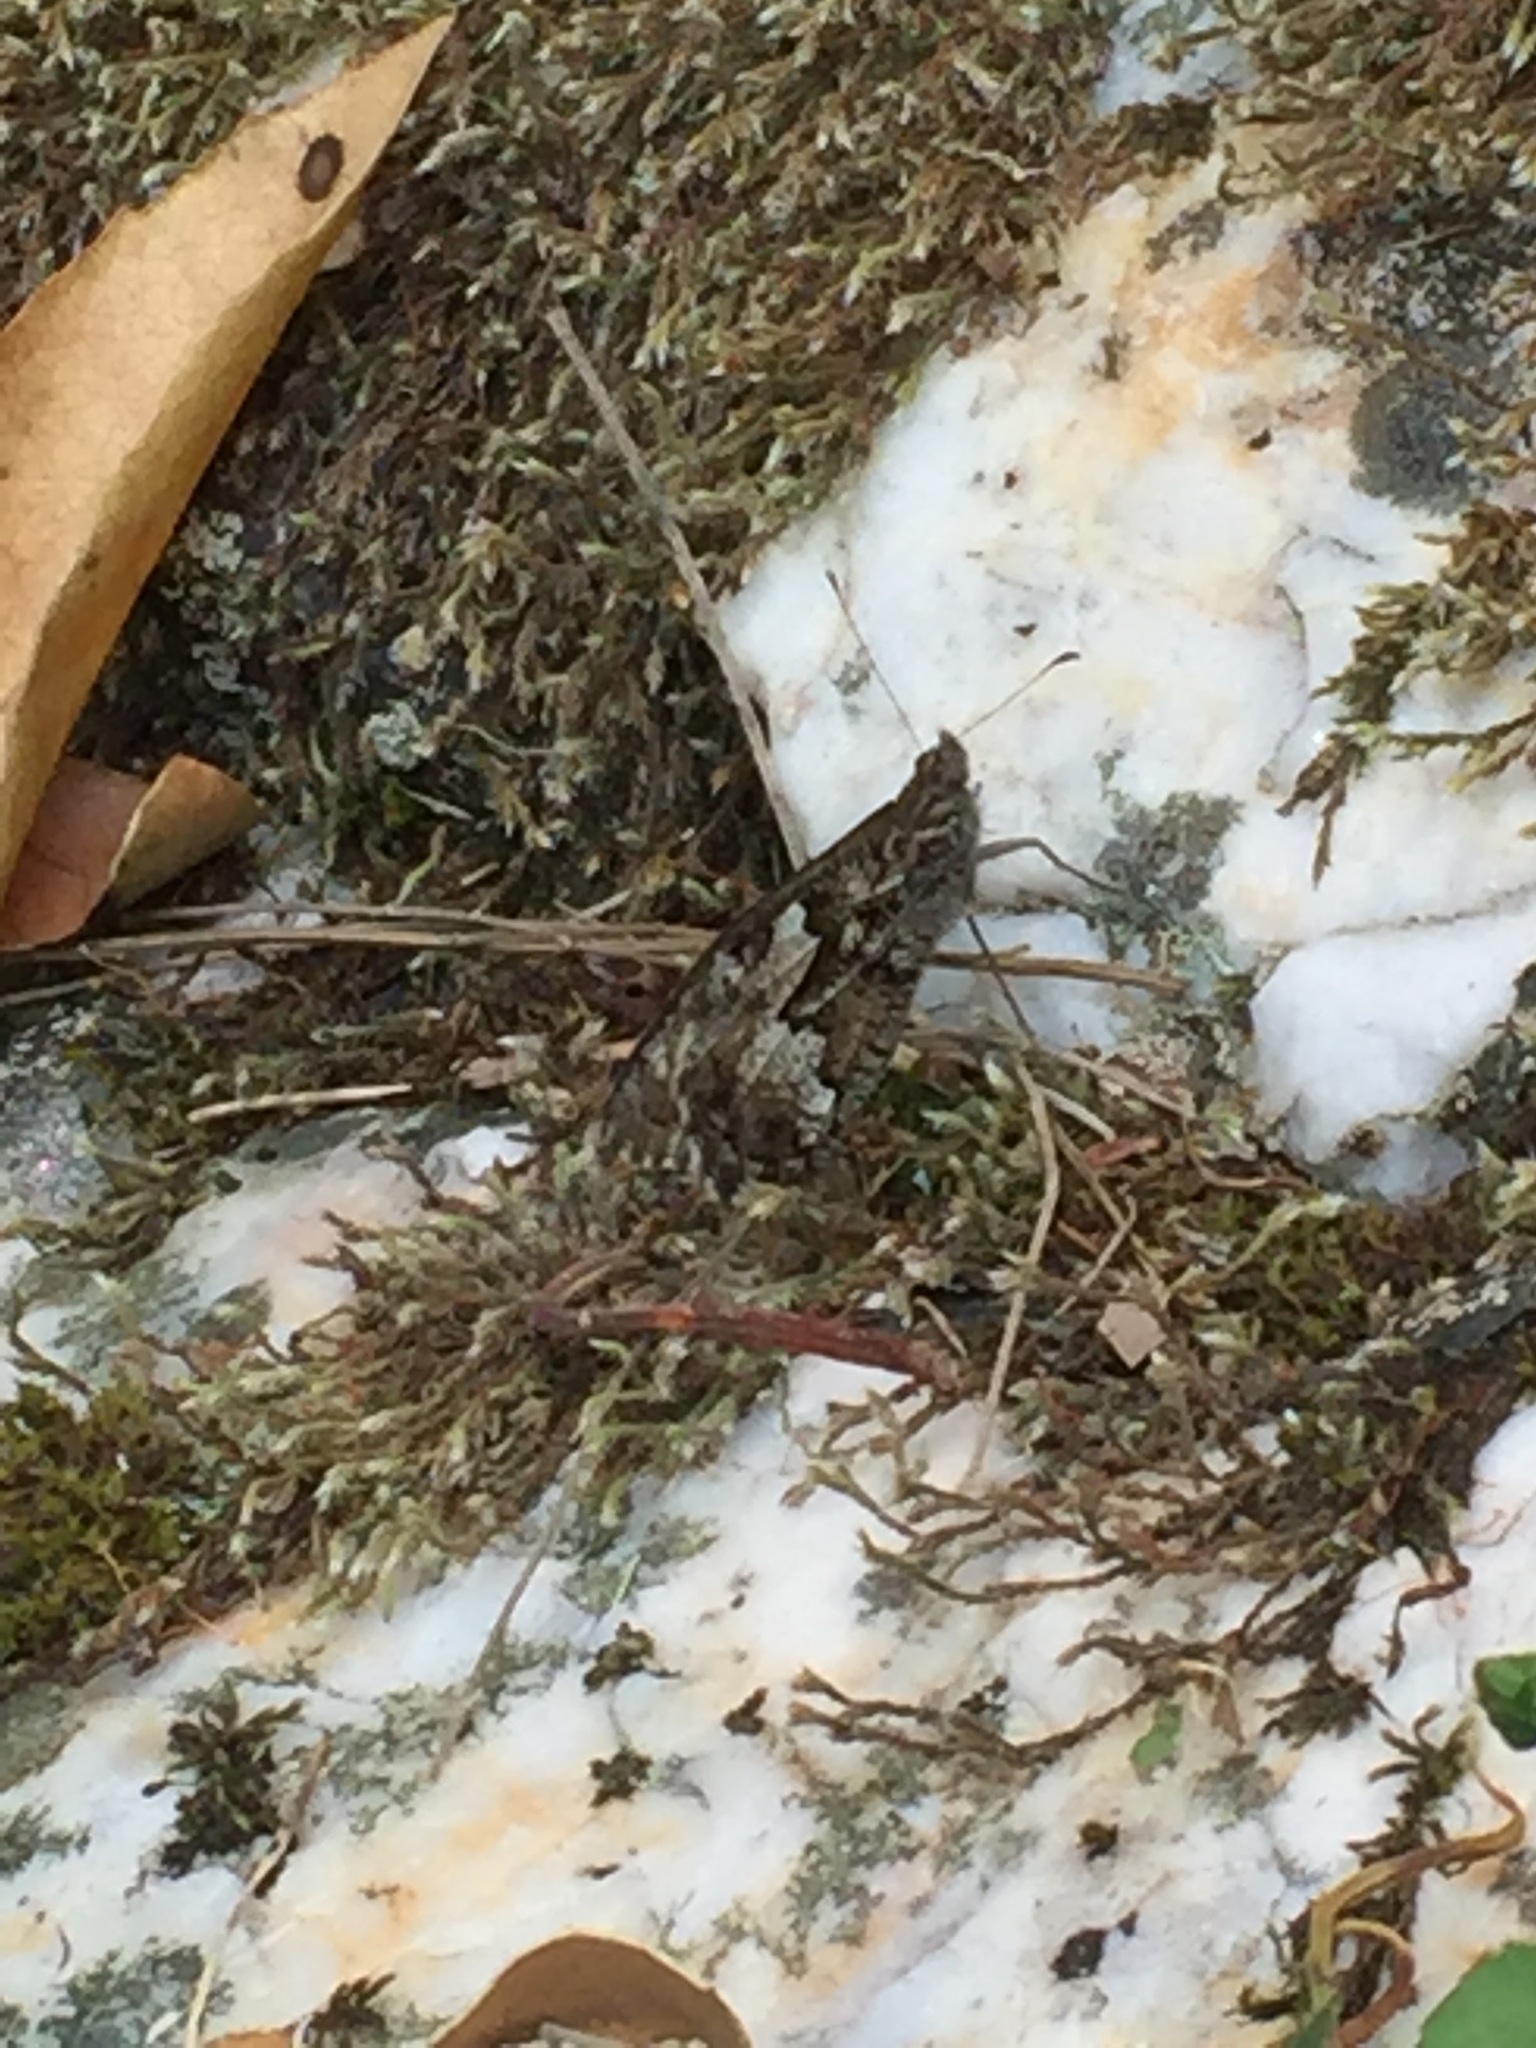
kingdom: Animalia
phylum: Arthropoda
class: Insecta
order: Lepidoptera
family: Nymphalidae
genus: Hipparchia
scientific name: Hipparchia semele
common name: Grayling
